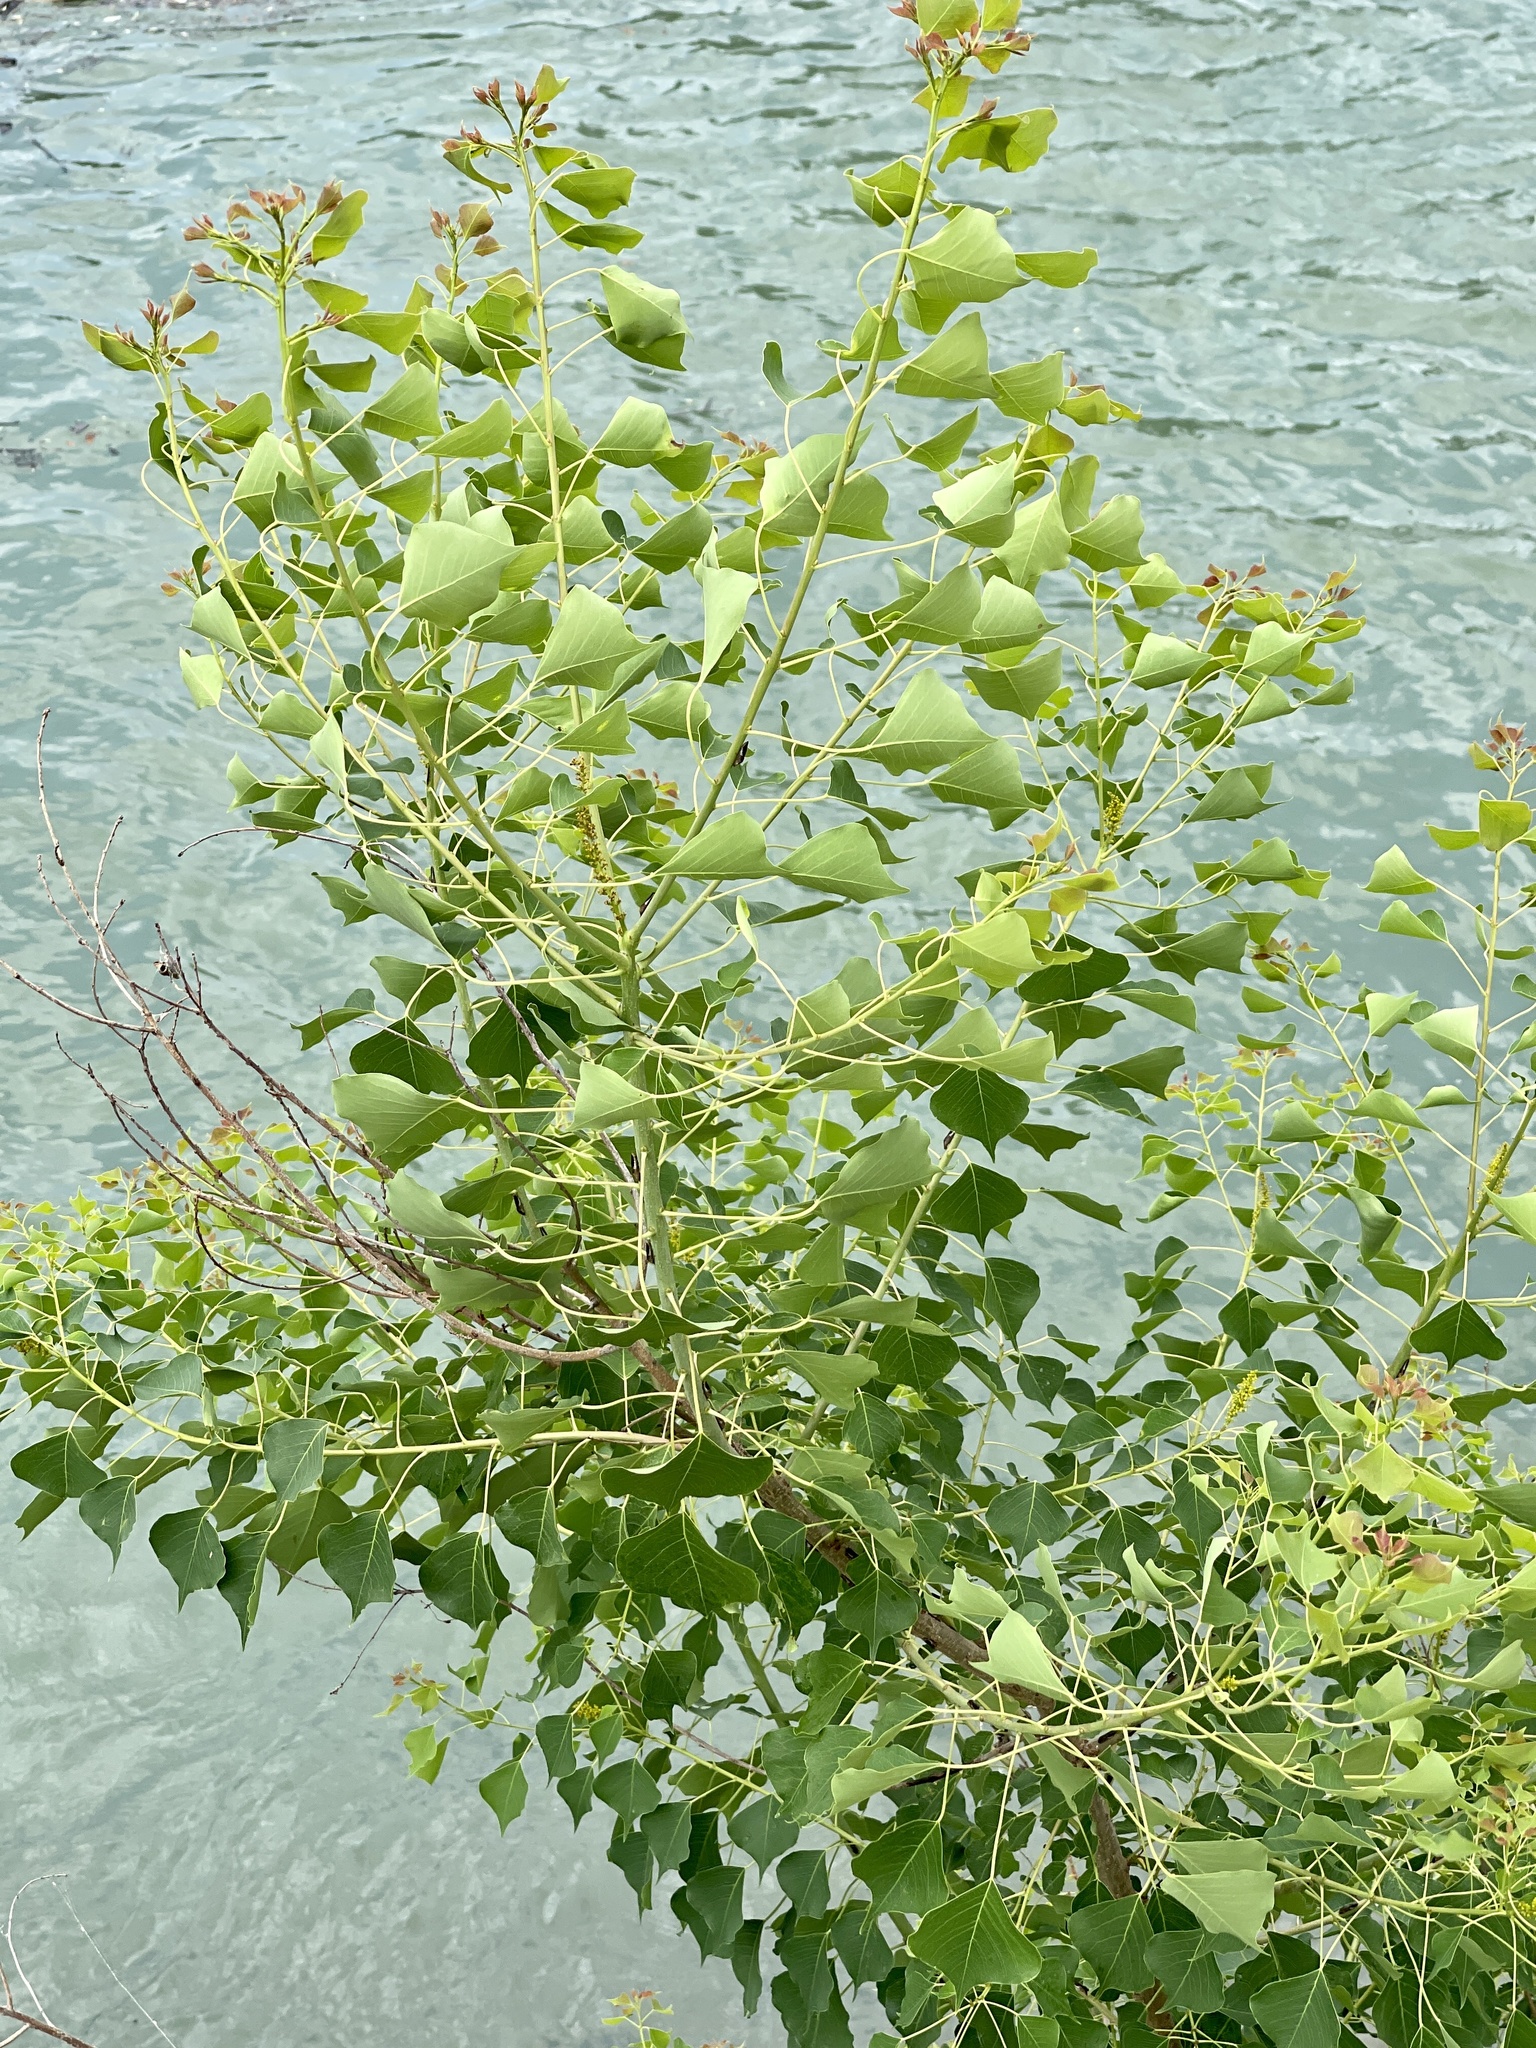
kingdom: Plantae
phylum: Tracheophyta
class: Magnoliopsida
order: Malpighiales
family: Euphorbiaceae
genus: Triadica
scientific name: Triadica sebifera
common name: Chinese tallow
